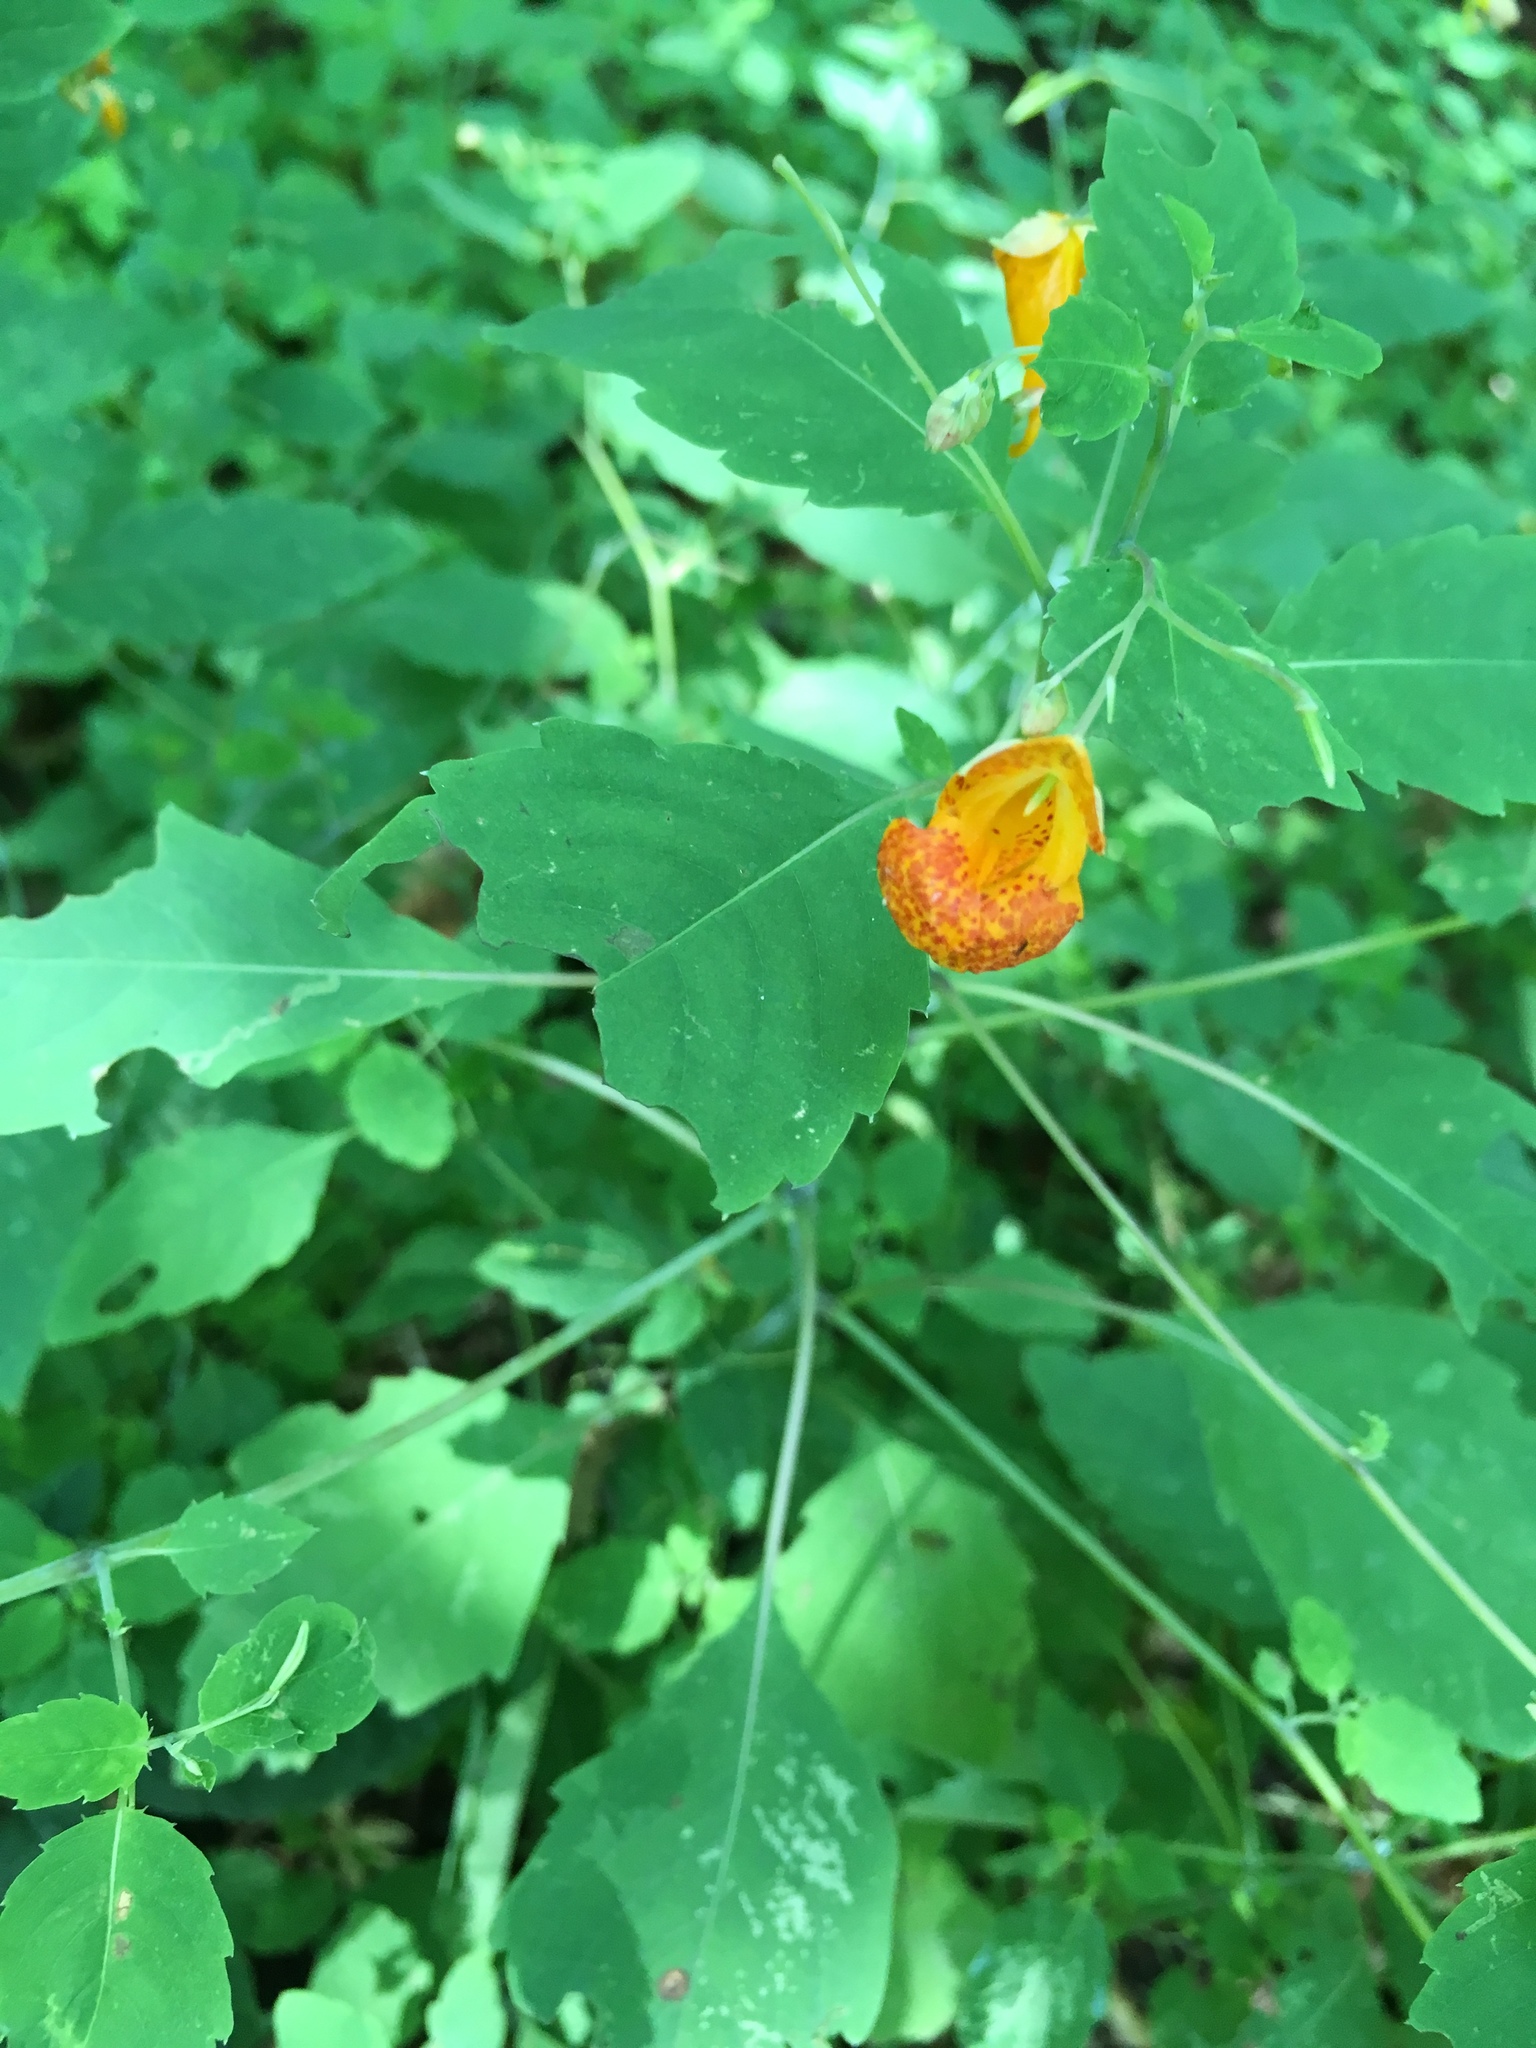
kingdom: Plantae
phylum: Tracheophyta
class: Magnoliopsida
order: Ericales
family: Balsaminaceae
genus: Impatiens
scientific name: Impatiens capensis
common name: Orange balsam
